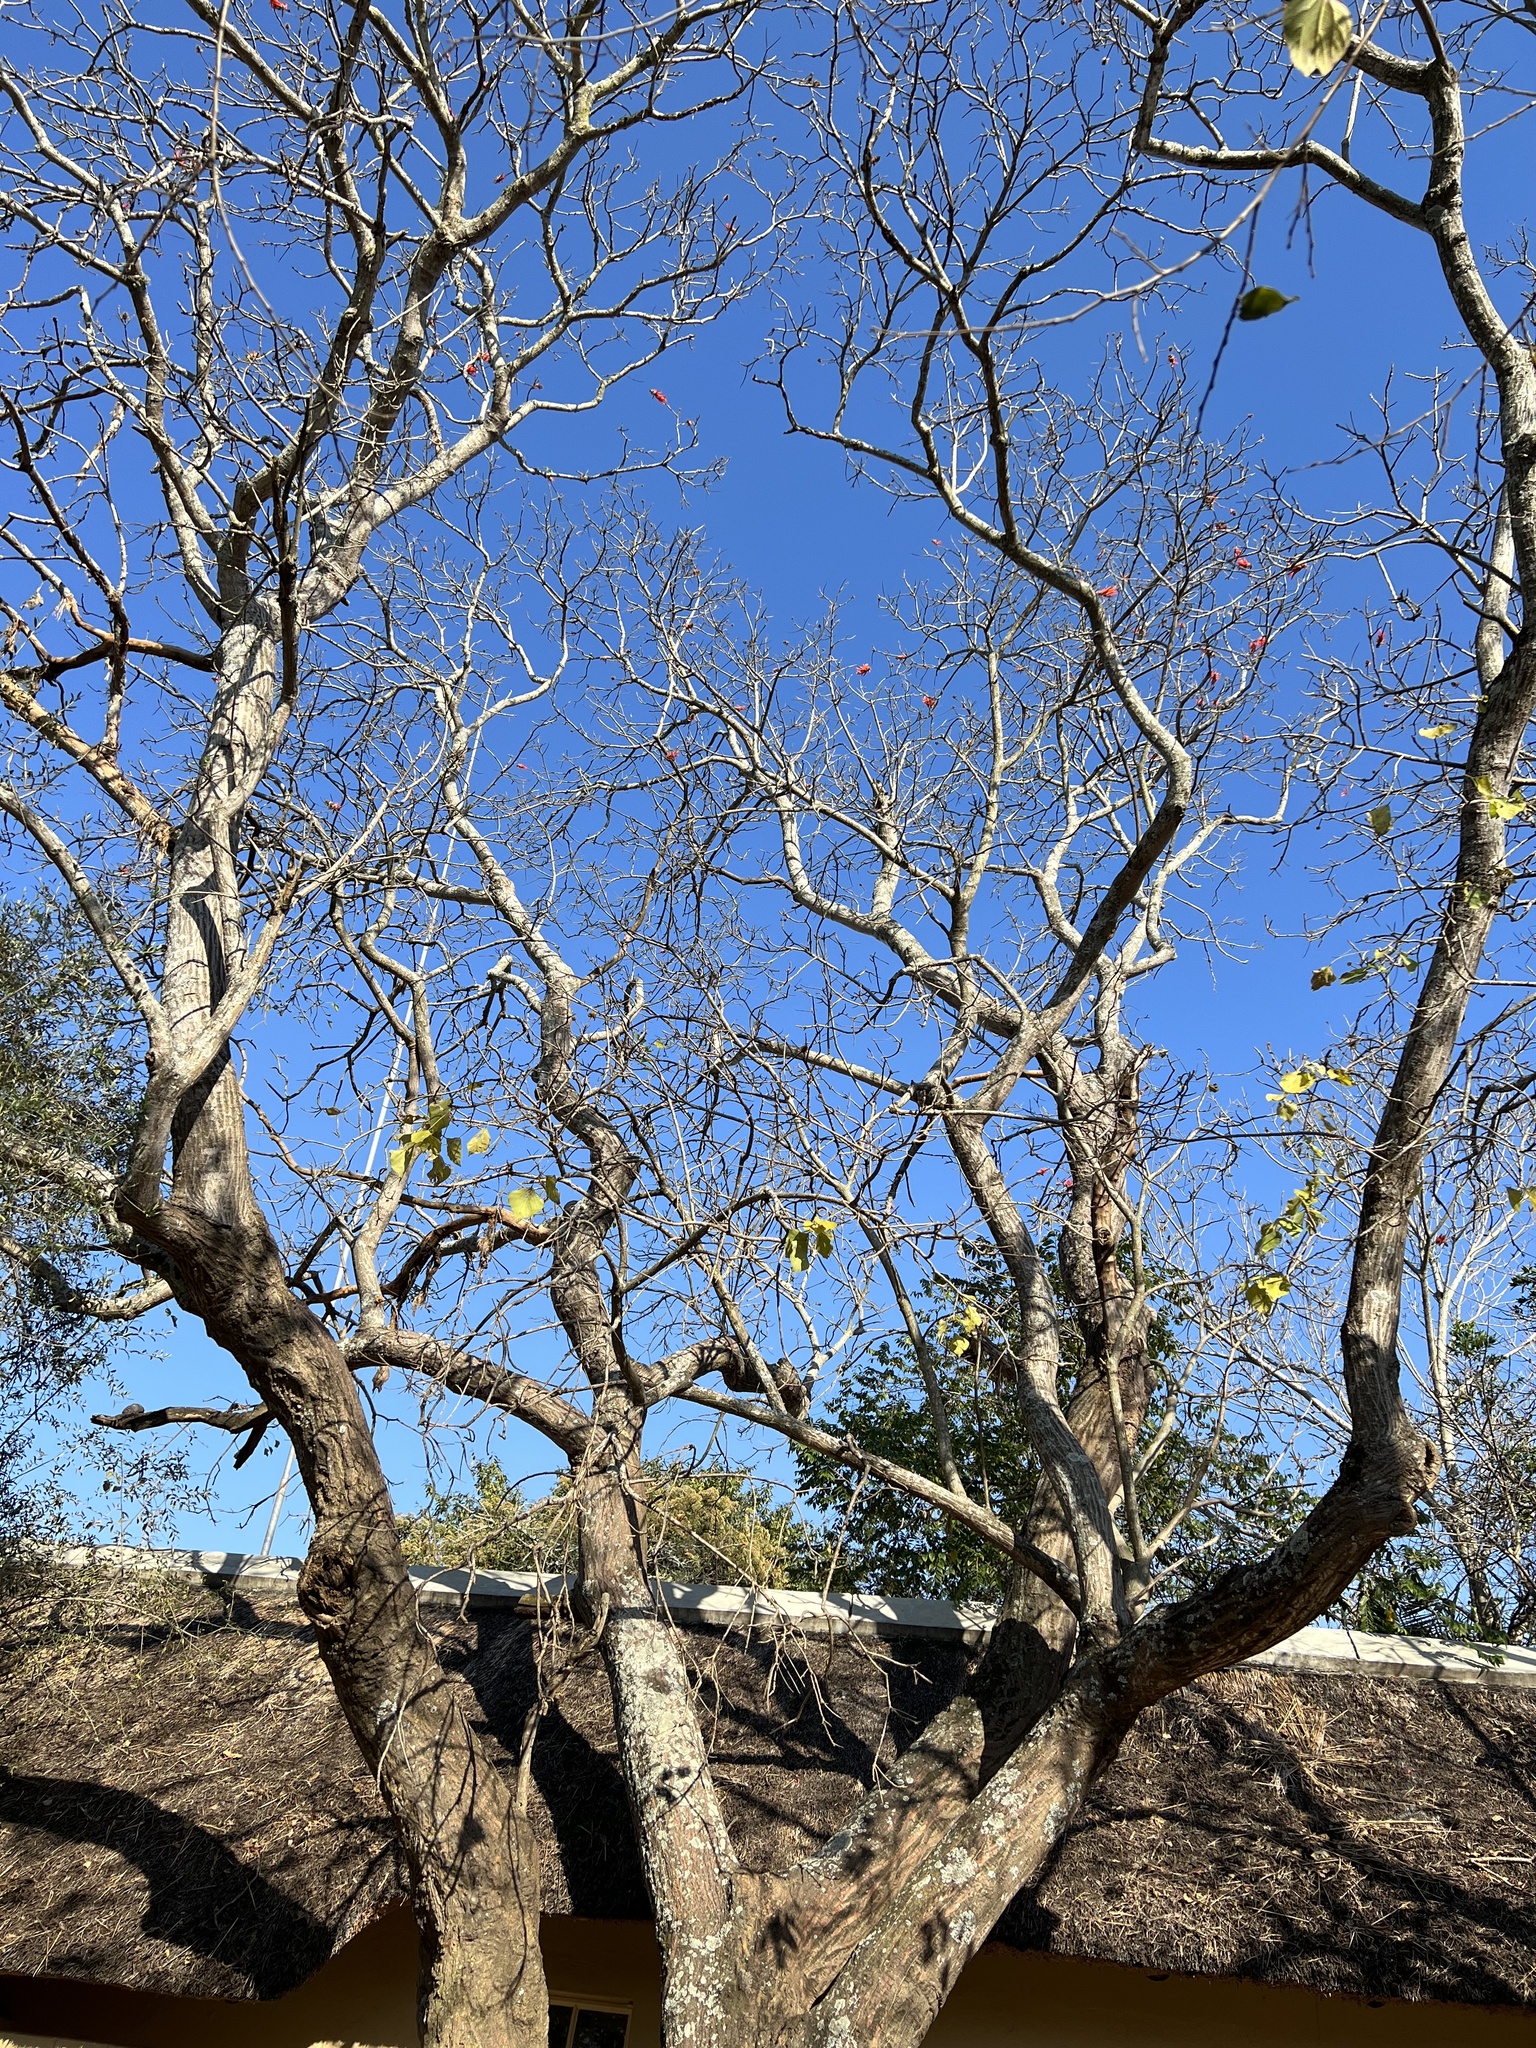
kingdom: Plantae
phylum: Tracheophyta
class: Magnoliopsida
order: Fabales
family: Fabaceae
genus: Erythrina
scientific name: Erythrina lysistemon
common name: Common coral tree
